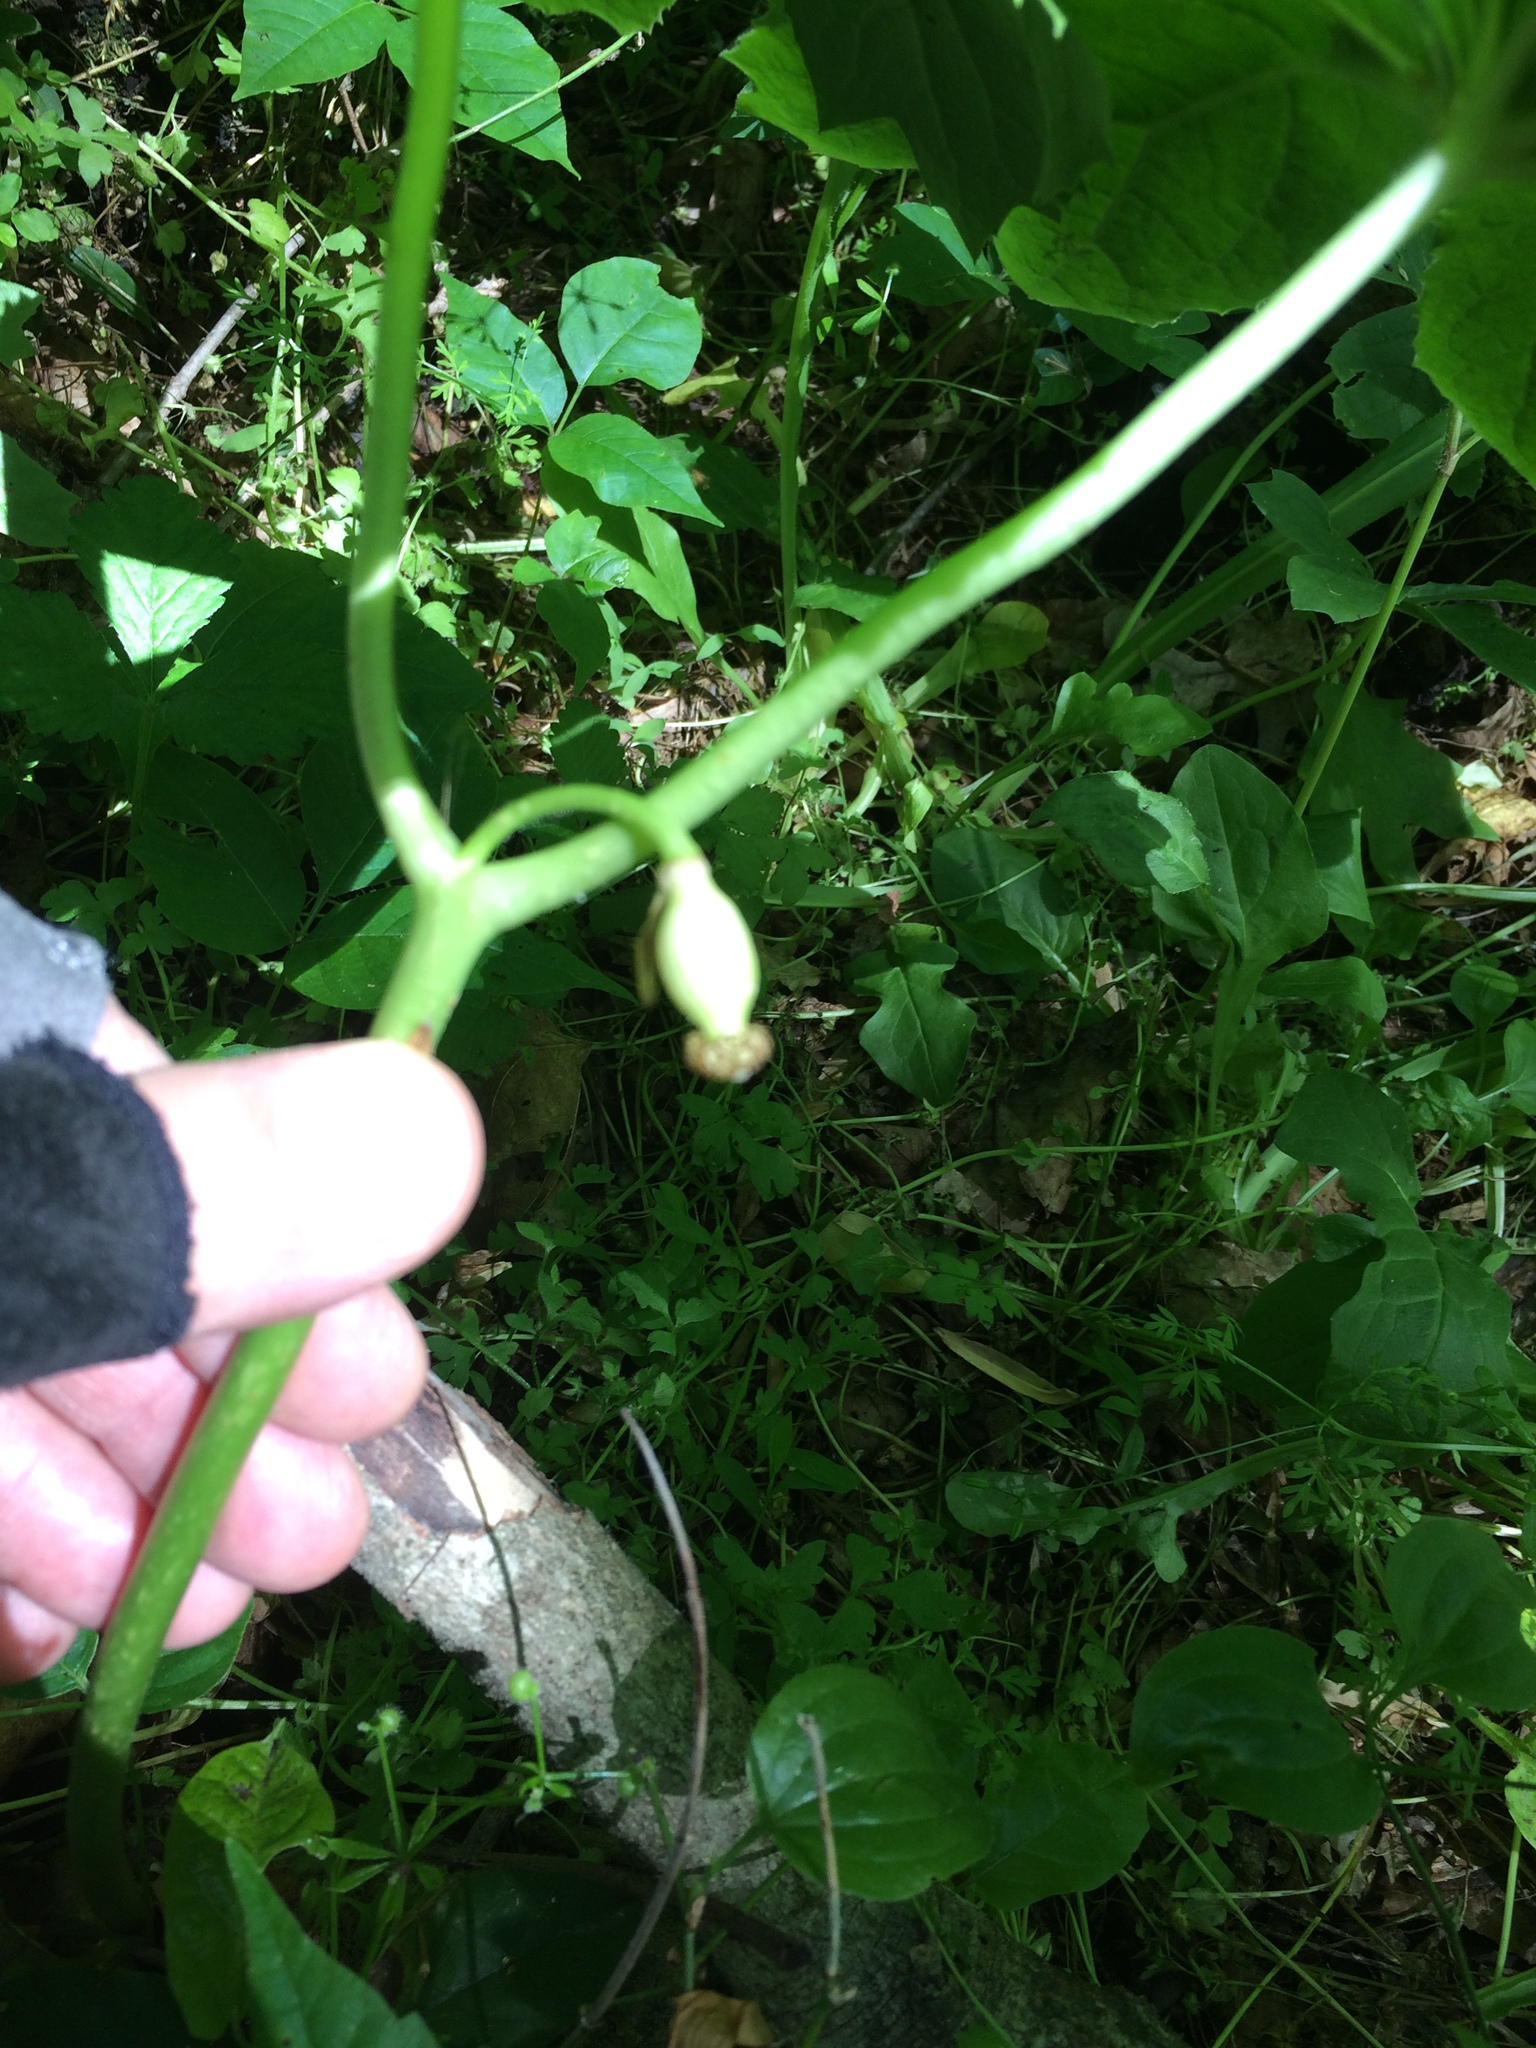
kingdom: Plantae
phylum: Tracheophyta
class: Magnoliopsida
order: Ranunculales
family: Berberidaceae
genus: Podophyllum
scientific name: Podophyllum peltatum
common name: Wild mandrake
